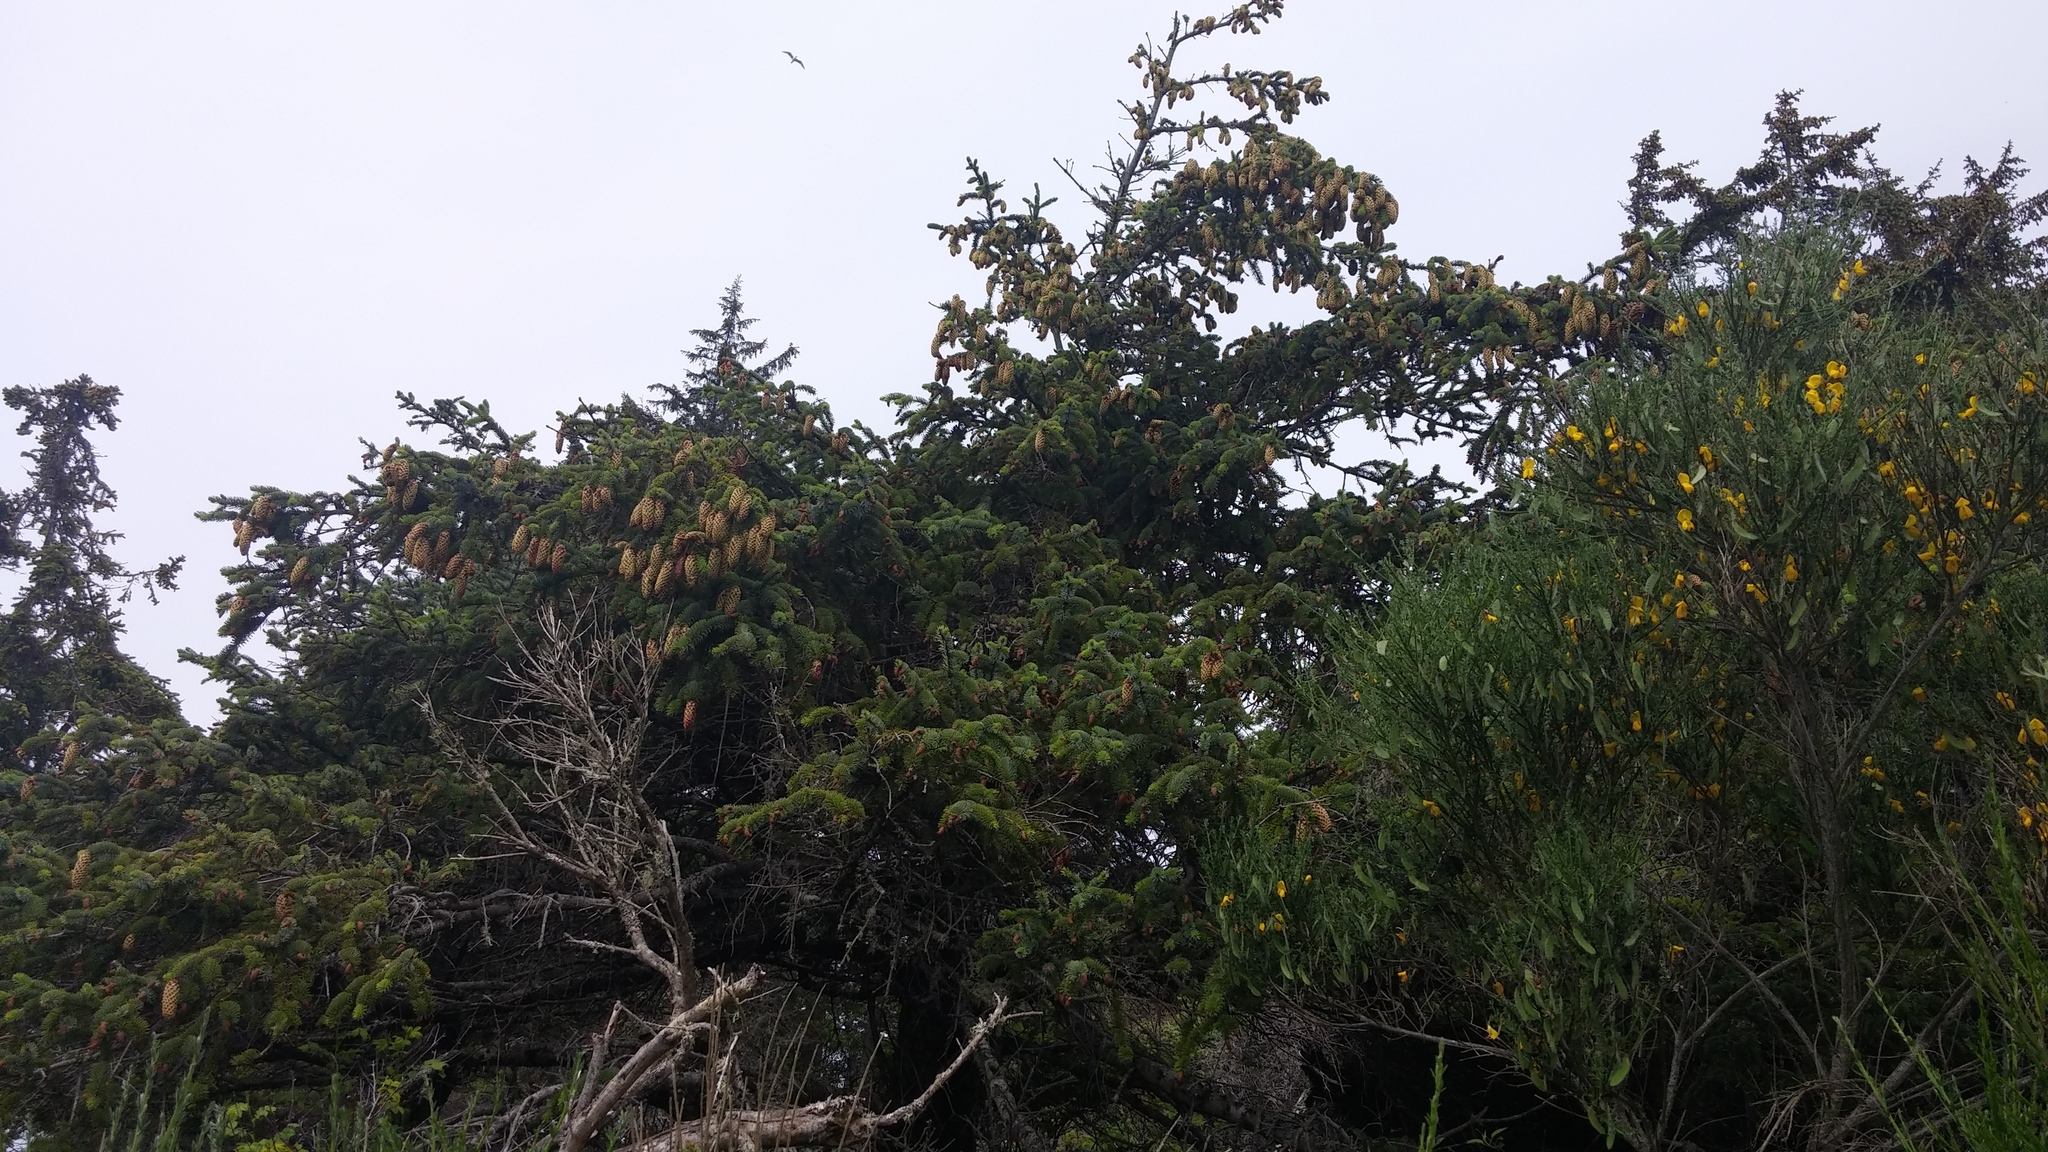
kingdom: Plantae
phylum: Tracheophyta
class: Pinopsida
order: Pinales
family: Pinaceae
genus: Picea
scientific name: Picea sitchensis
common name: Sitka spruce
